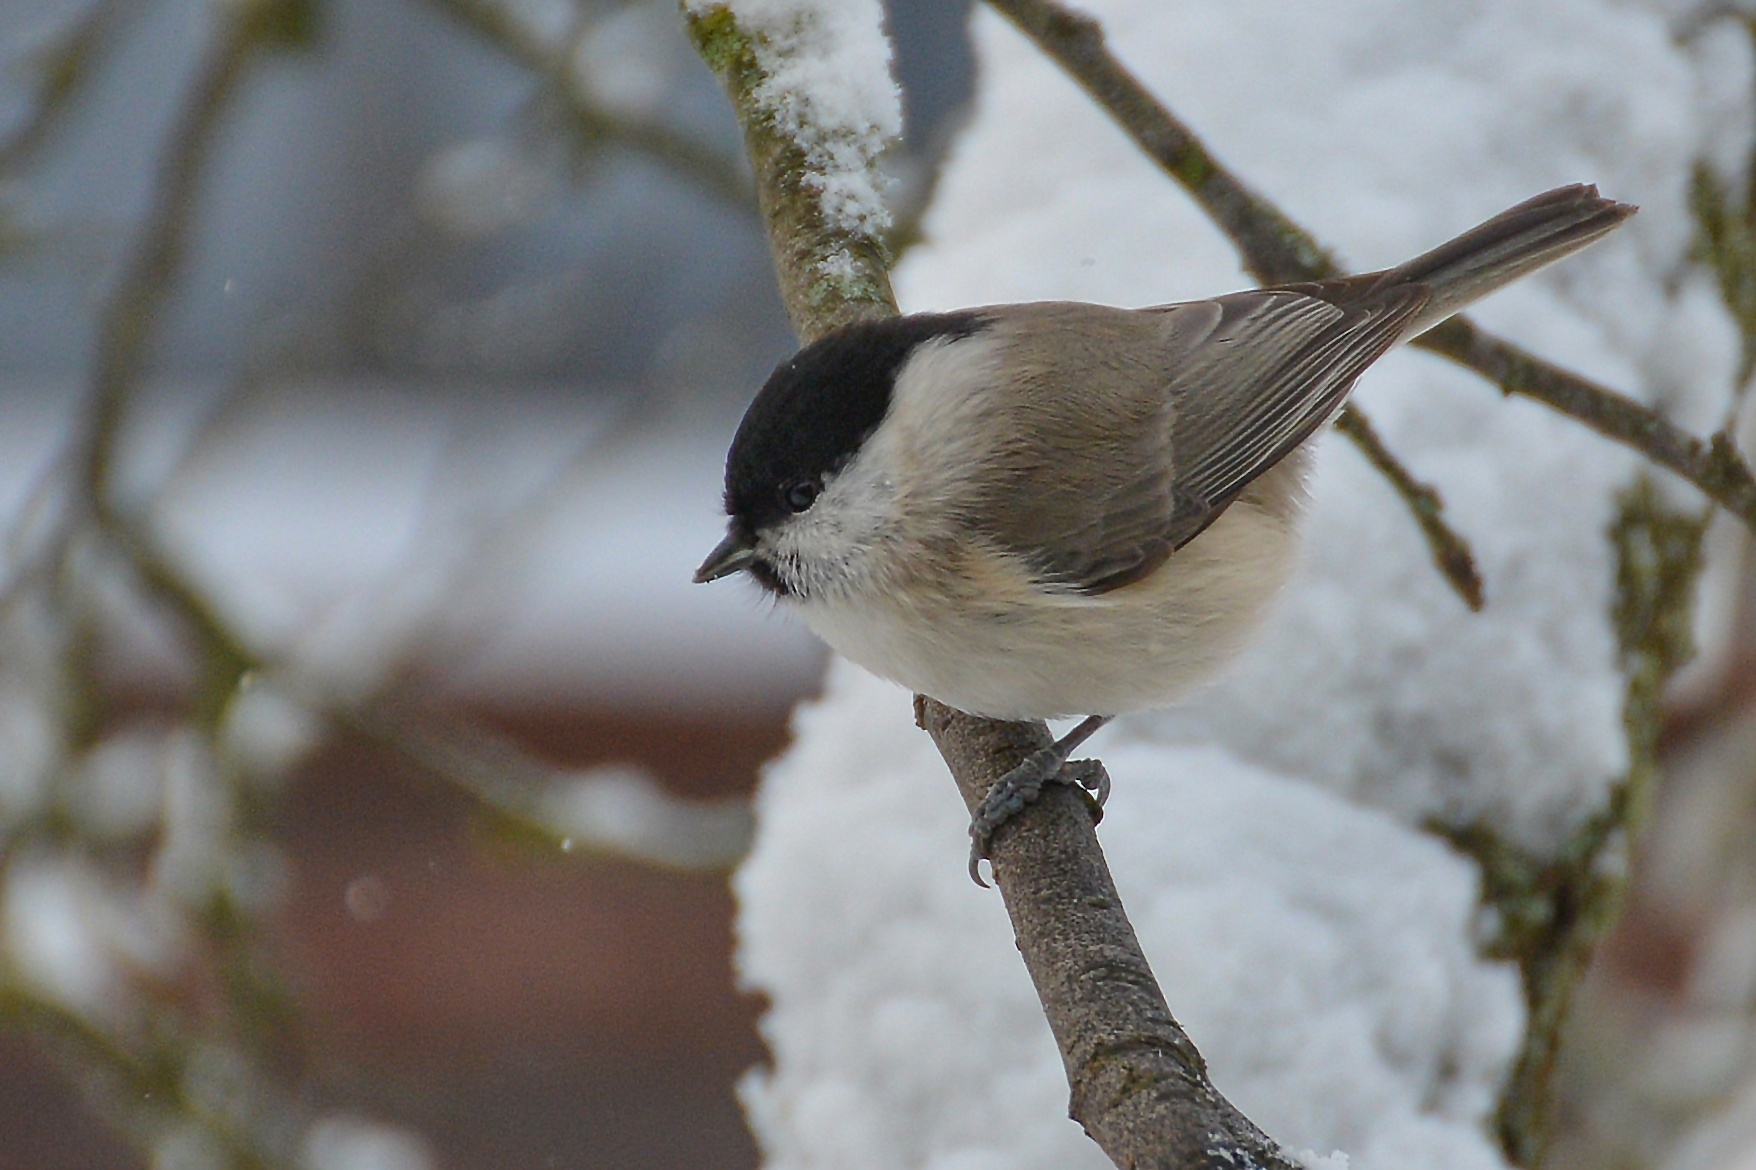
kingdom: Animalia
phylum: Chordata
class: Aves
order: Passeriformes
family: Paridae
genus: Poecile
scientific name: Poecile palustris
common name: Marsh tit
